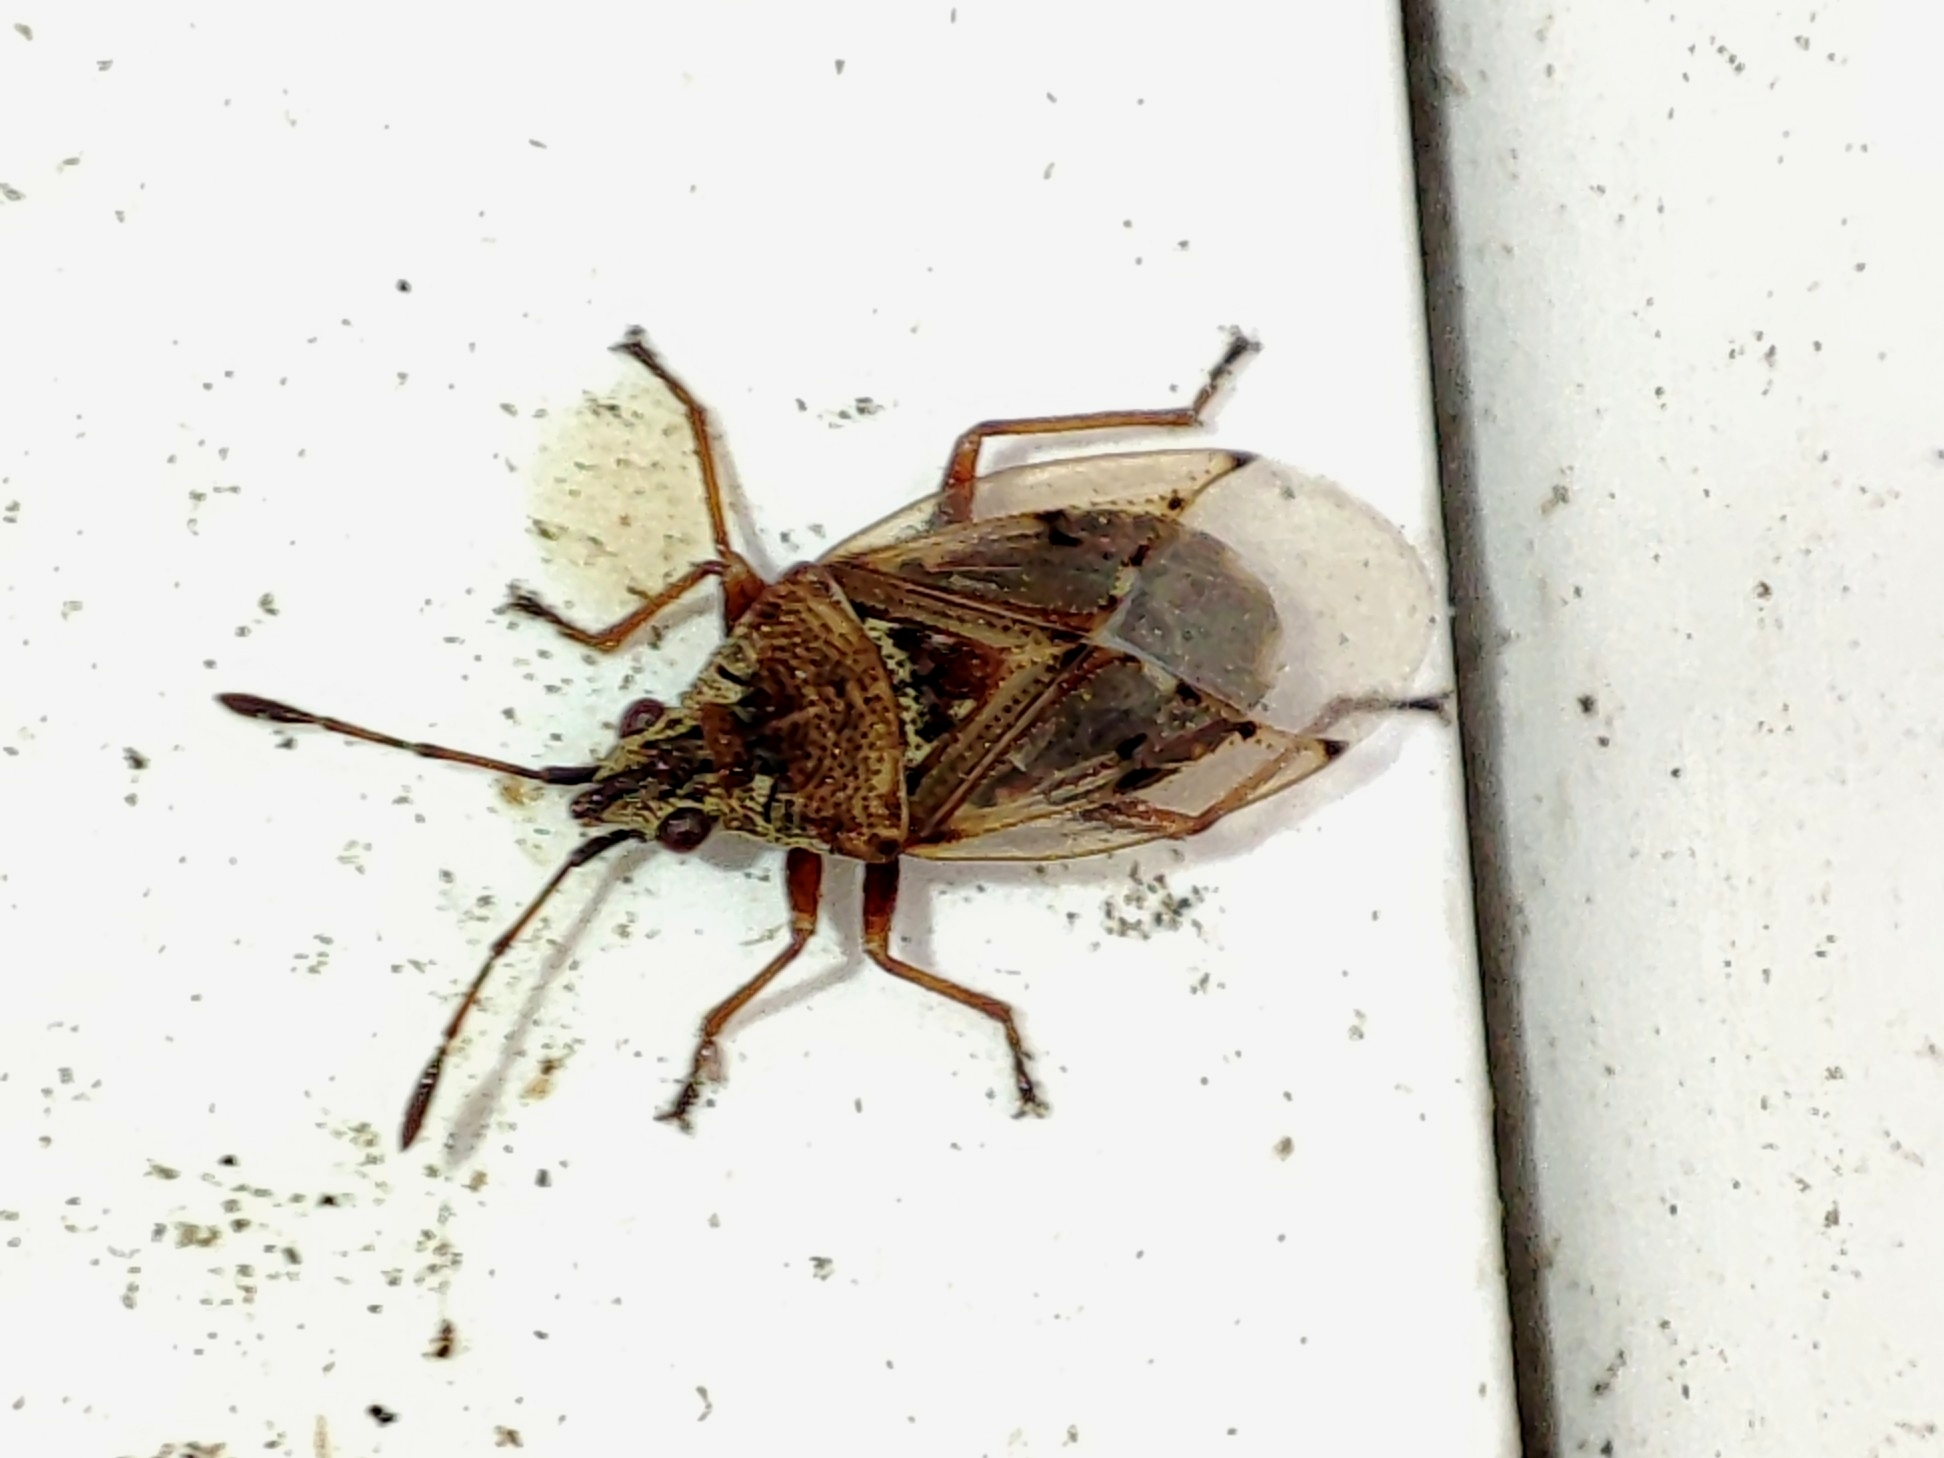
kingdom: Animalia
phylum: Arthropoda
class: Insecta
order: Hemiptera
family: Lygaeidae
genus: Kleidocerys
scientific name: Kleidocerys resedae
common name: Birch catkin bug
